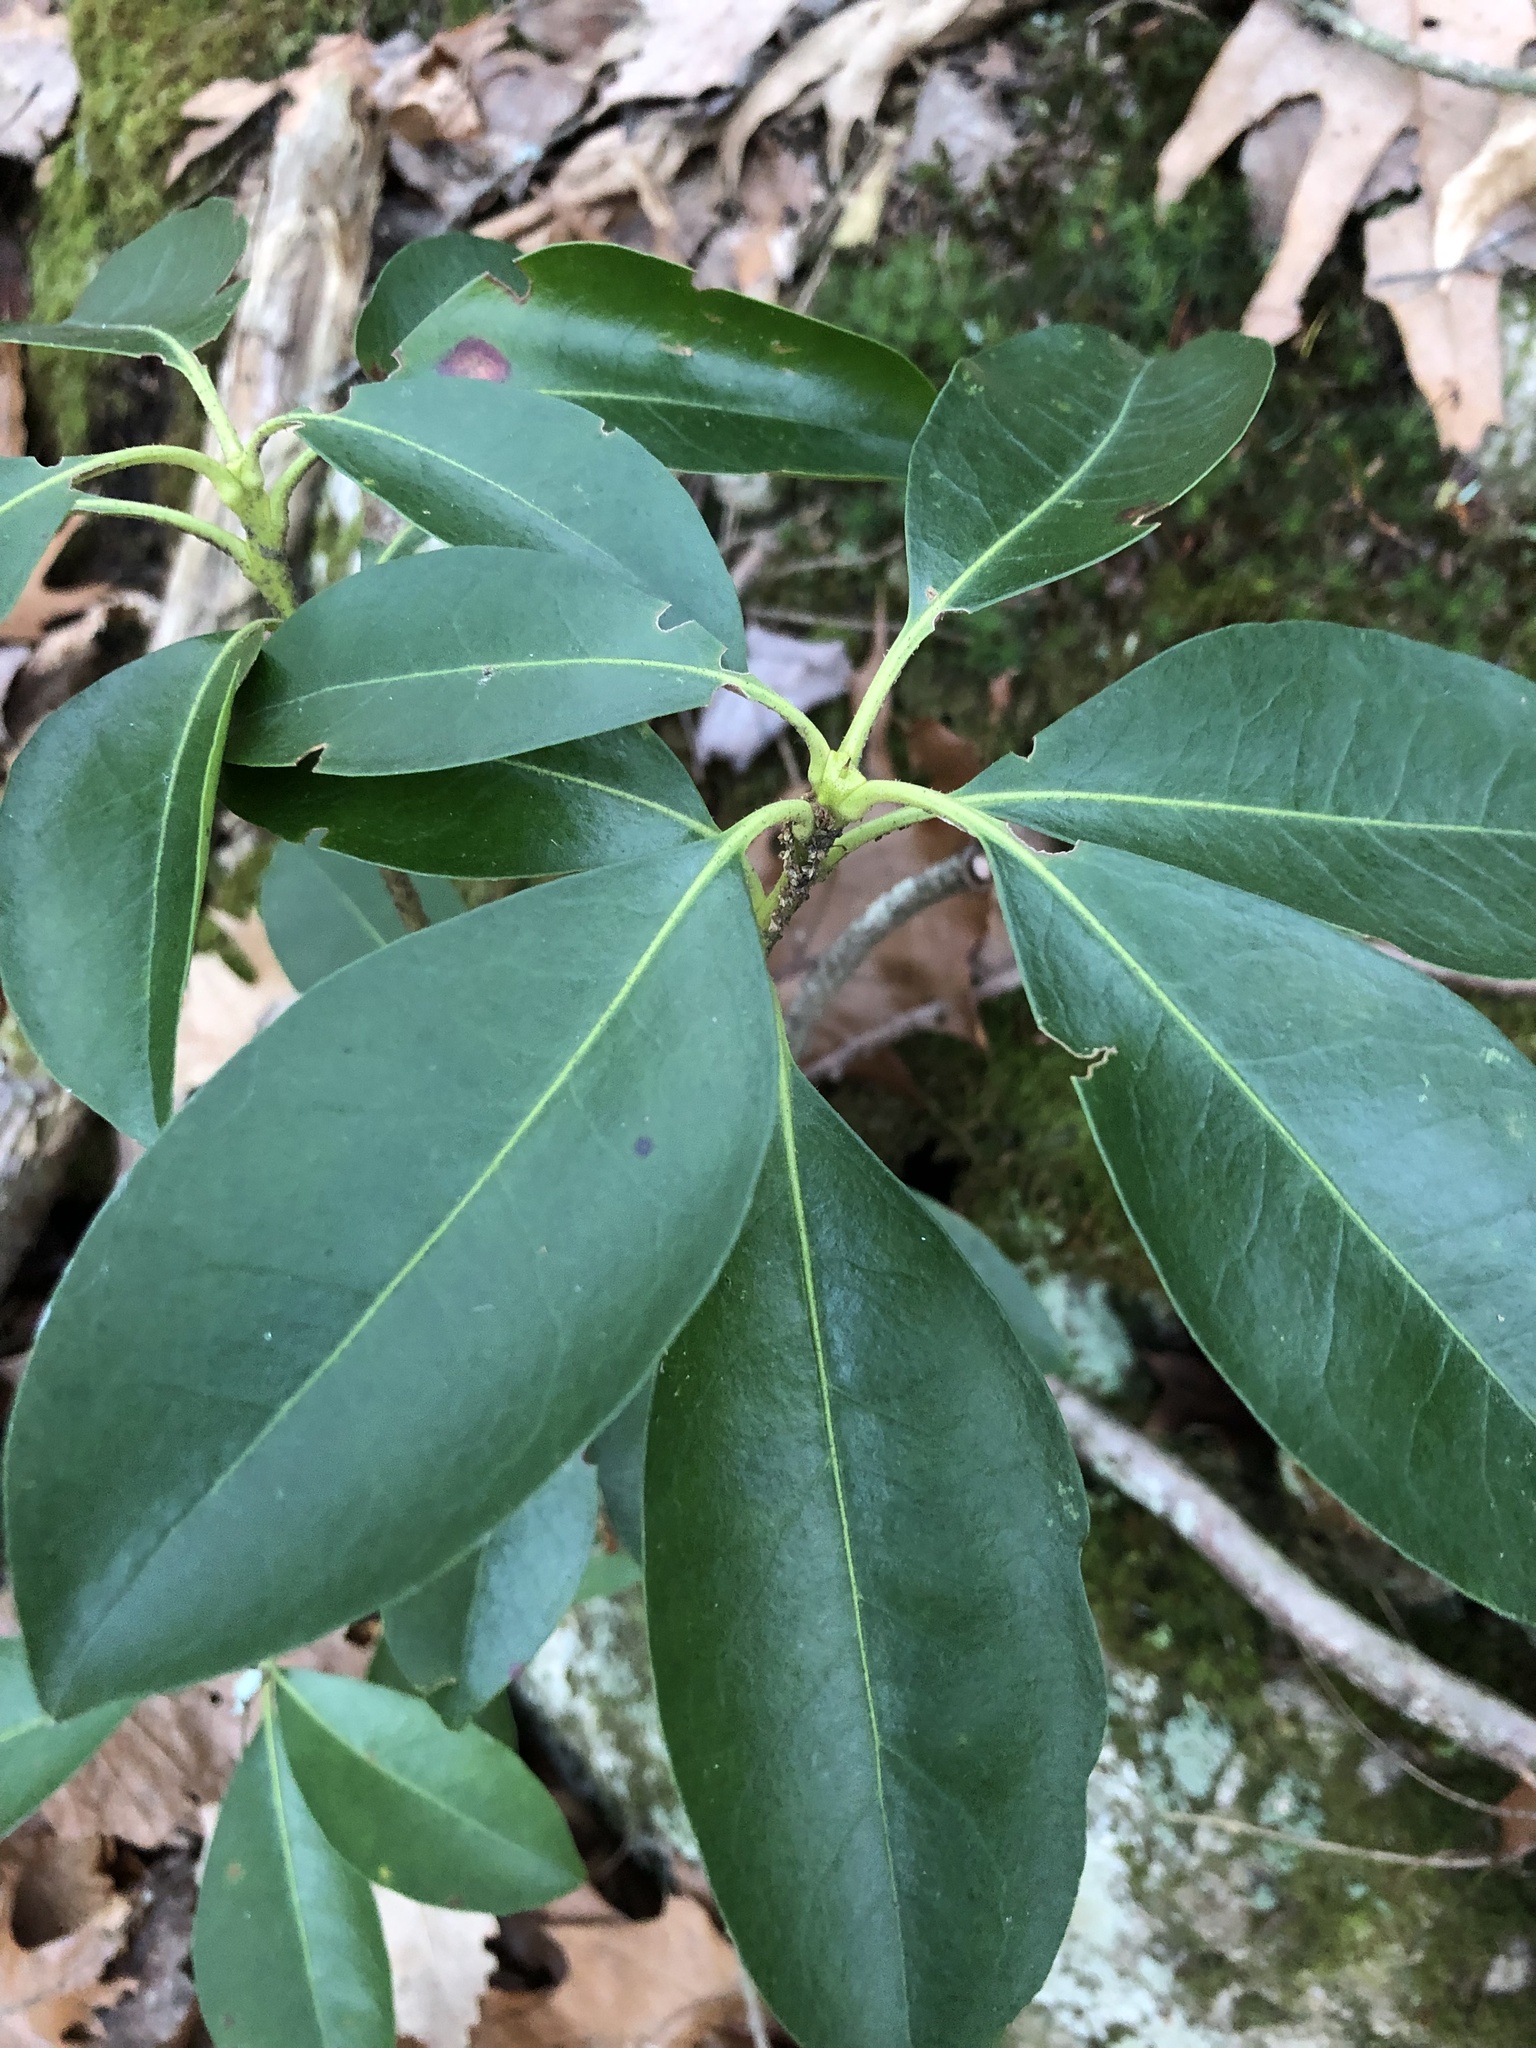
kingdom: Plantae
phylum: Tracheophyta
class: Magnoliopsida
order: Ericales
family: Ericaceae
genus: Kalmia
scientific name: Kalmia latifolia
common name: Mountain-laurel
